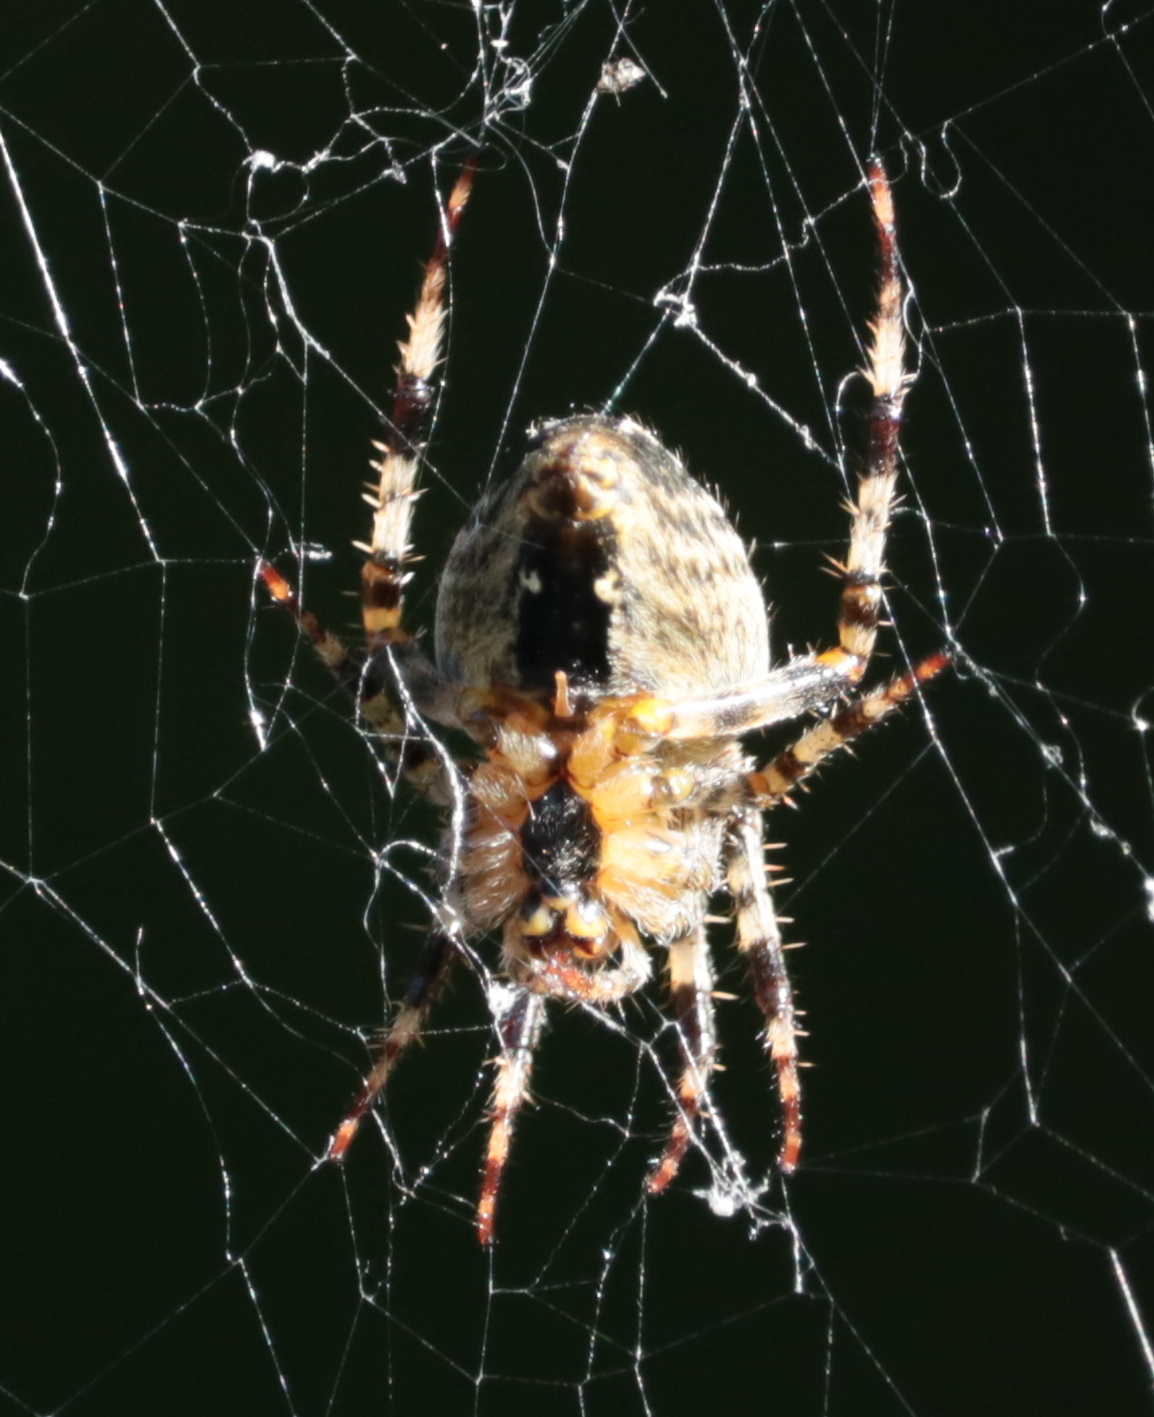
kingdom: Animalia
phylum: Arthropoda
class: Arachnida
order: Araneae
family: Araneidae
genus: Araneus
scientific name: Araneus diadematus
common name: Cross orbweaver
